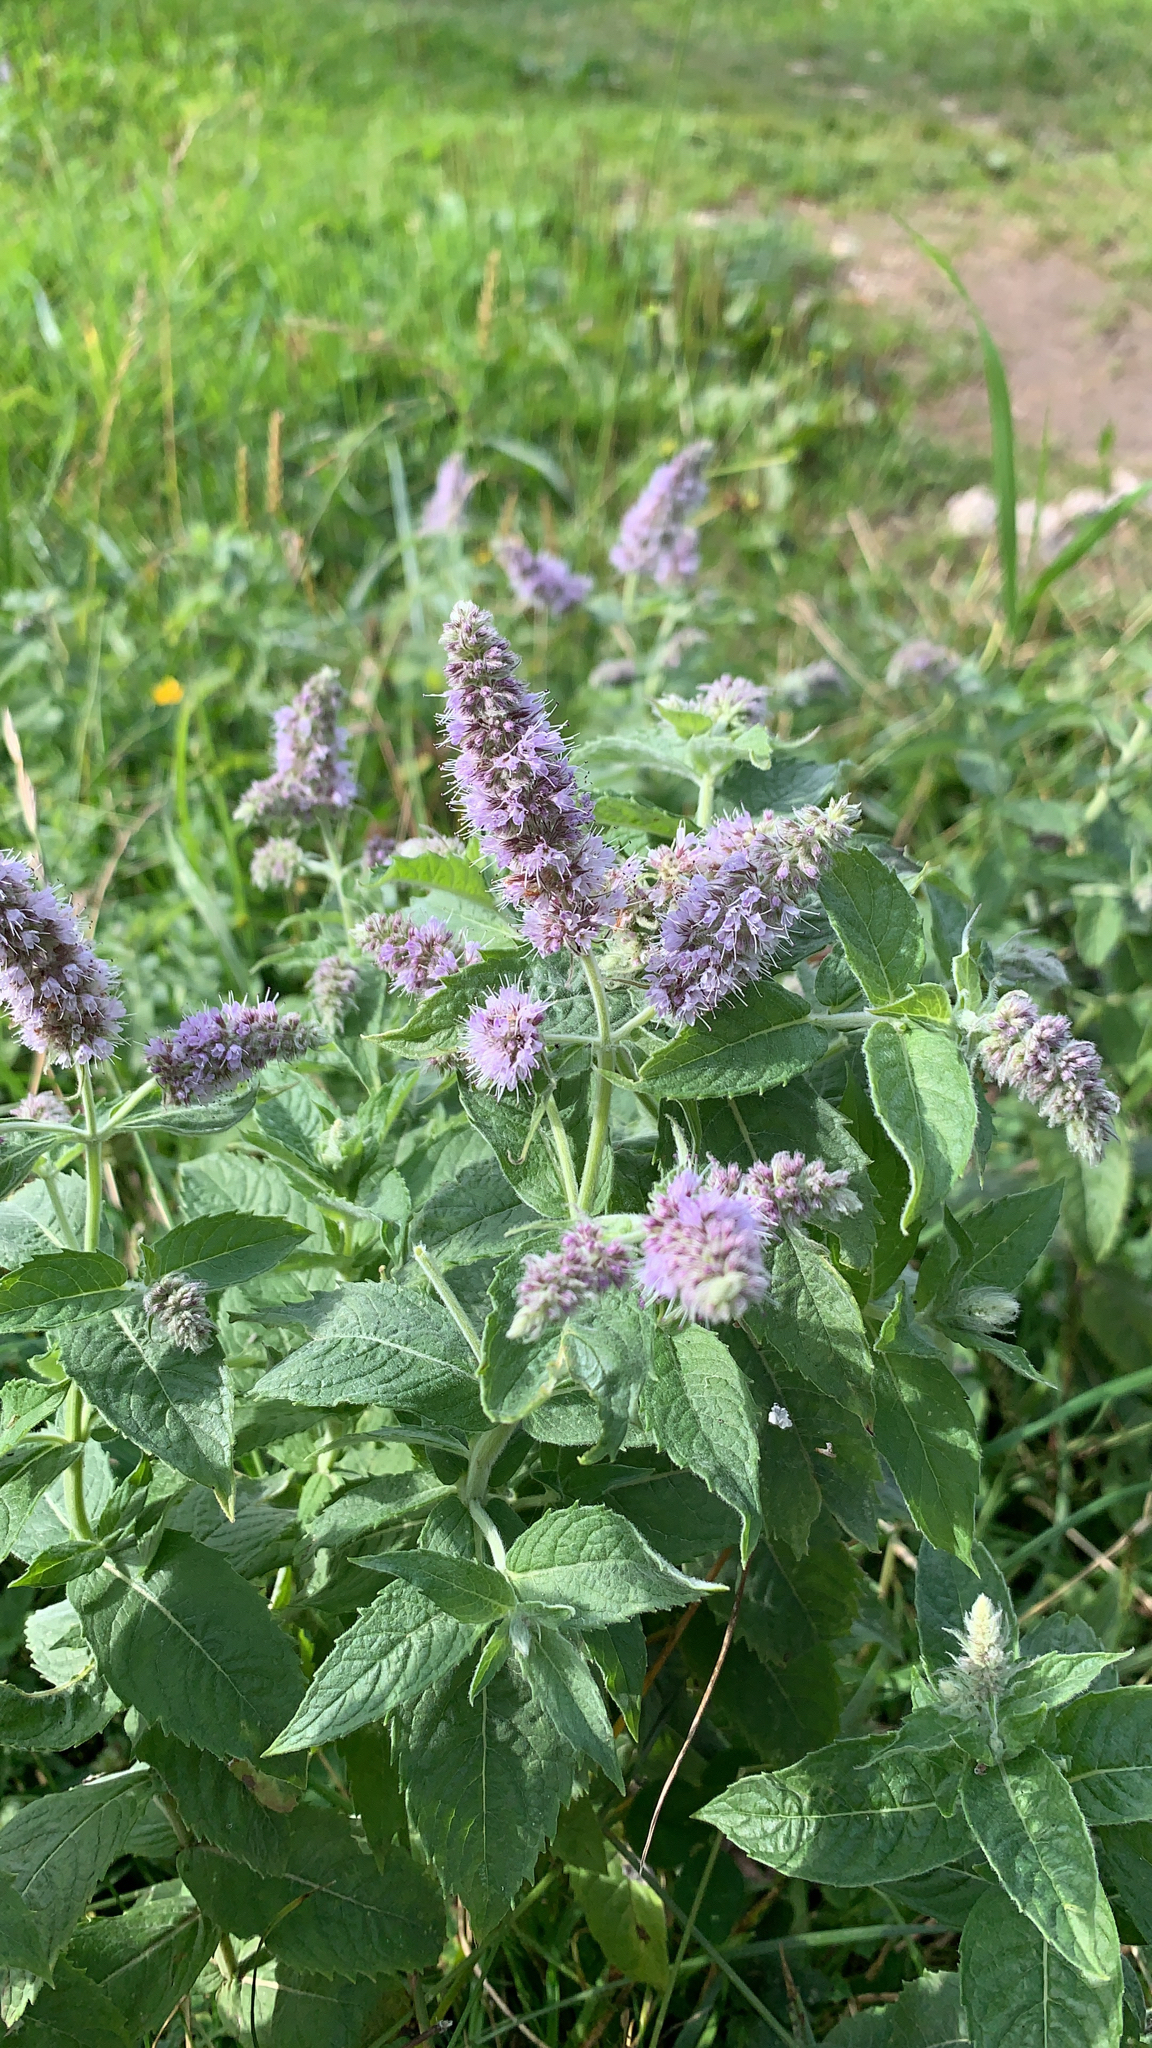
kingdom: Plantae
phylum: Tracheophyta
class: Magnoliopsida
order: Lamiales
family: Lamiaceae
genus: Mentha
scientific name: Mentha longifolia
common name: Horse mint
